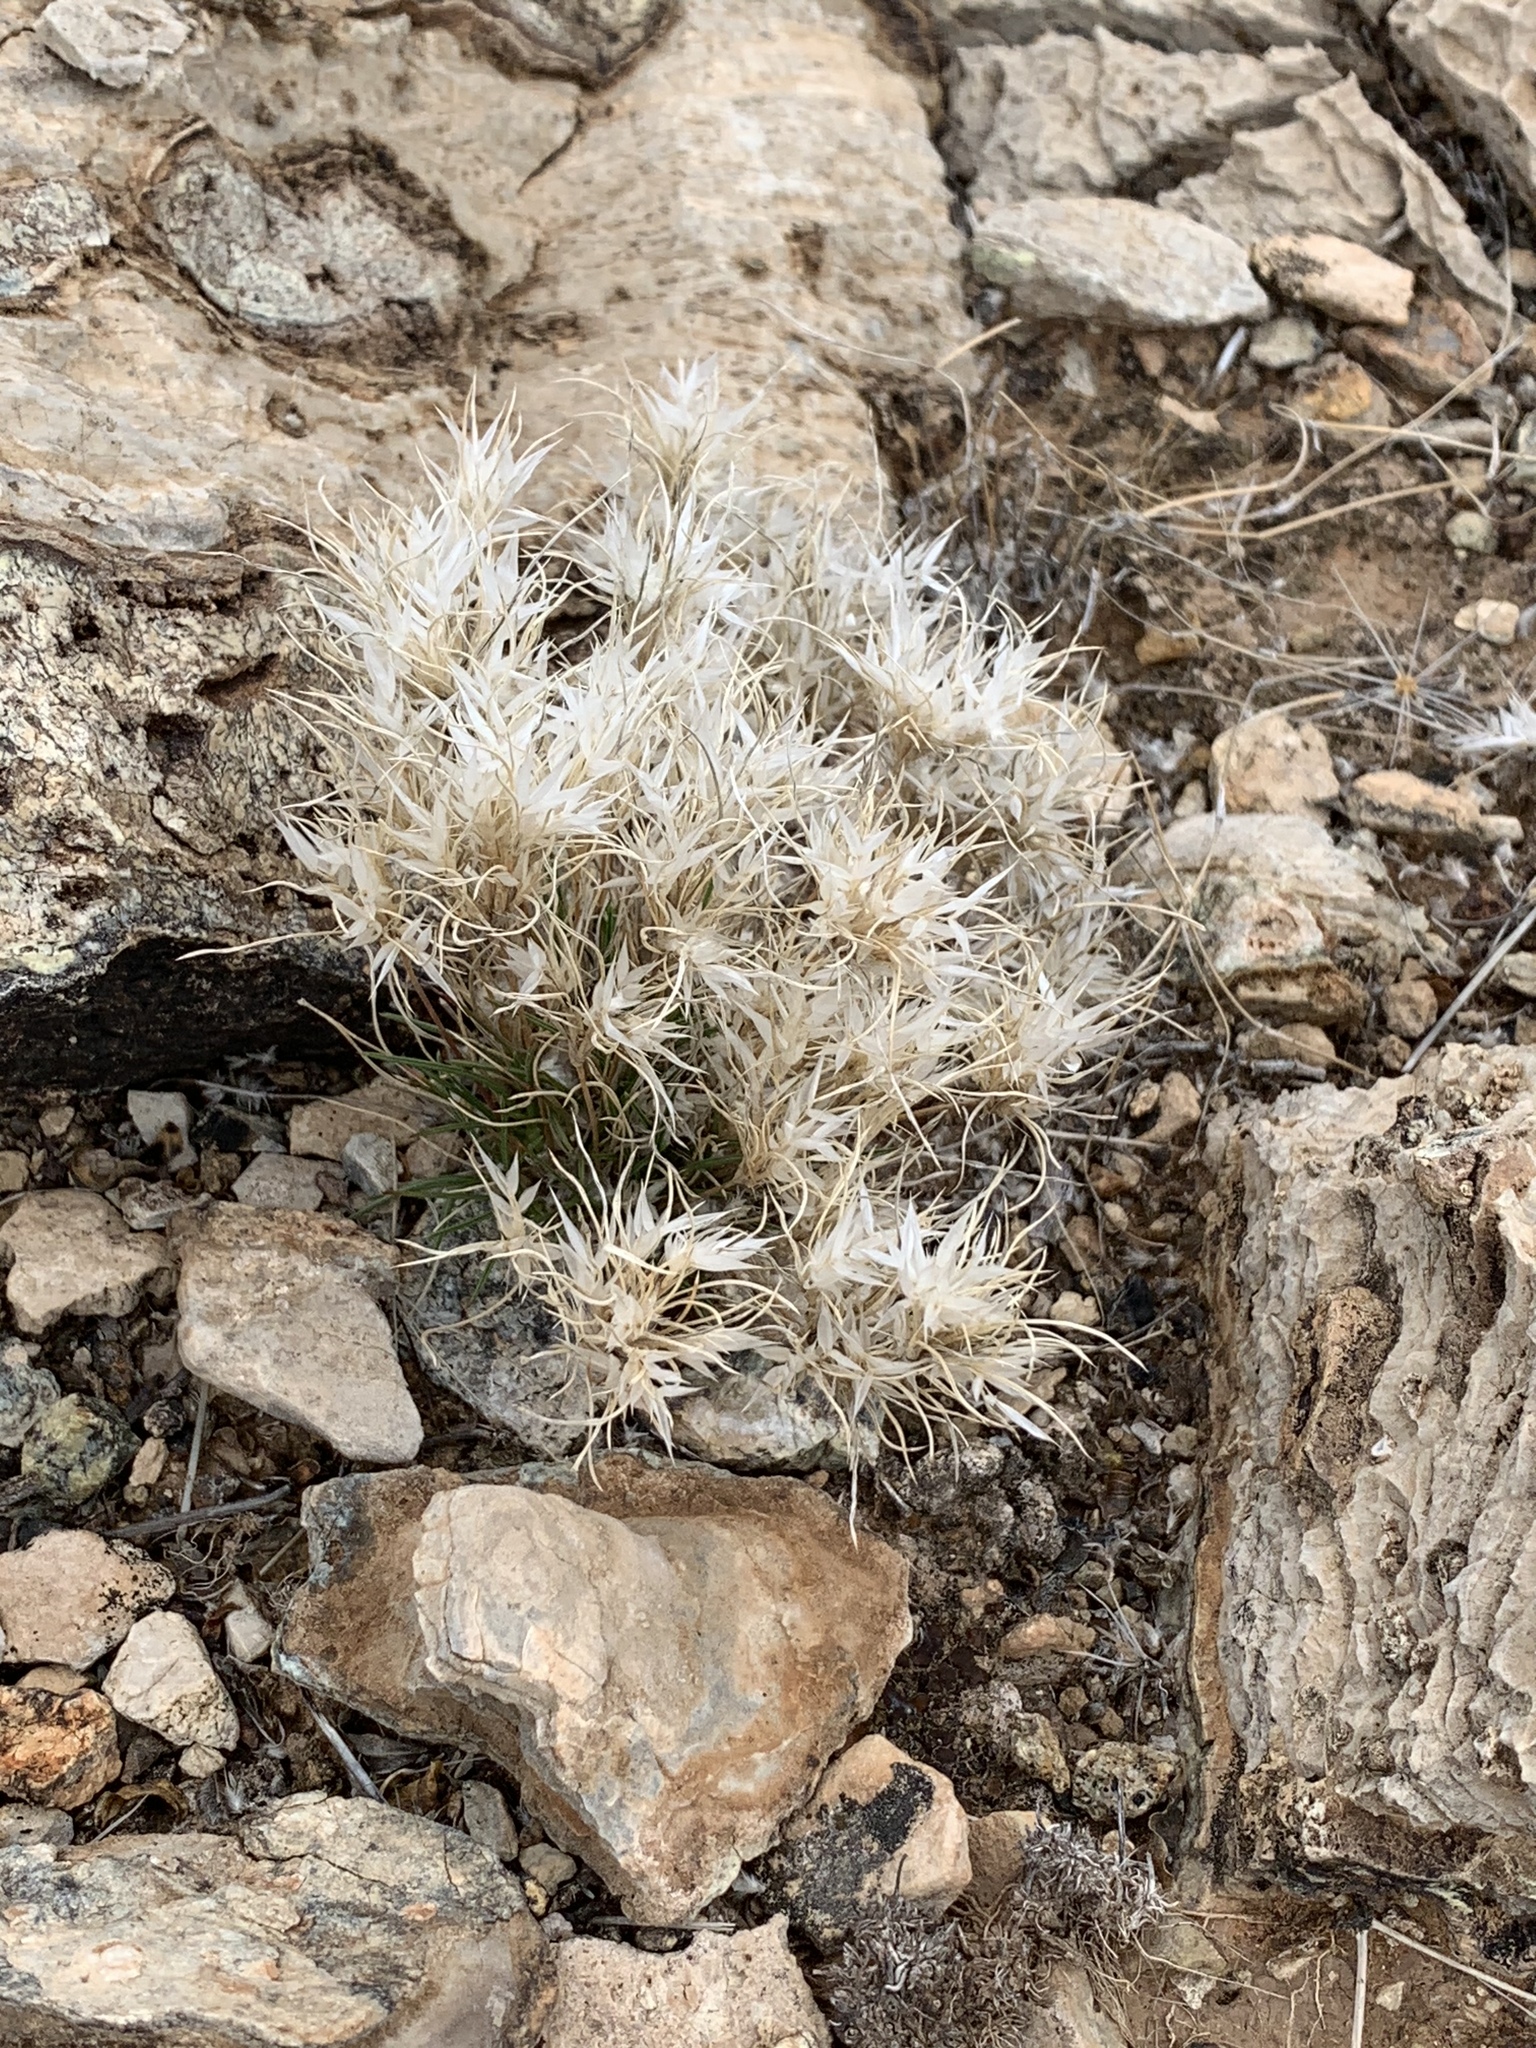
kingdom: Plantae
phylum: Tracheophyta
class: Liliopsida
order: Poales
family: Poaceae
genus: Dasyochloa
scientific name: Dasyochloa pulchella
